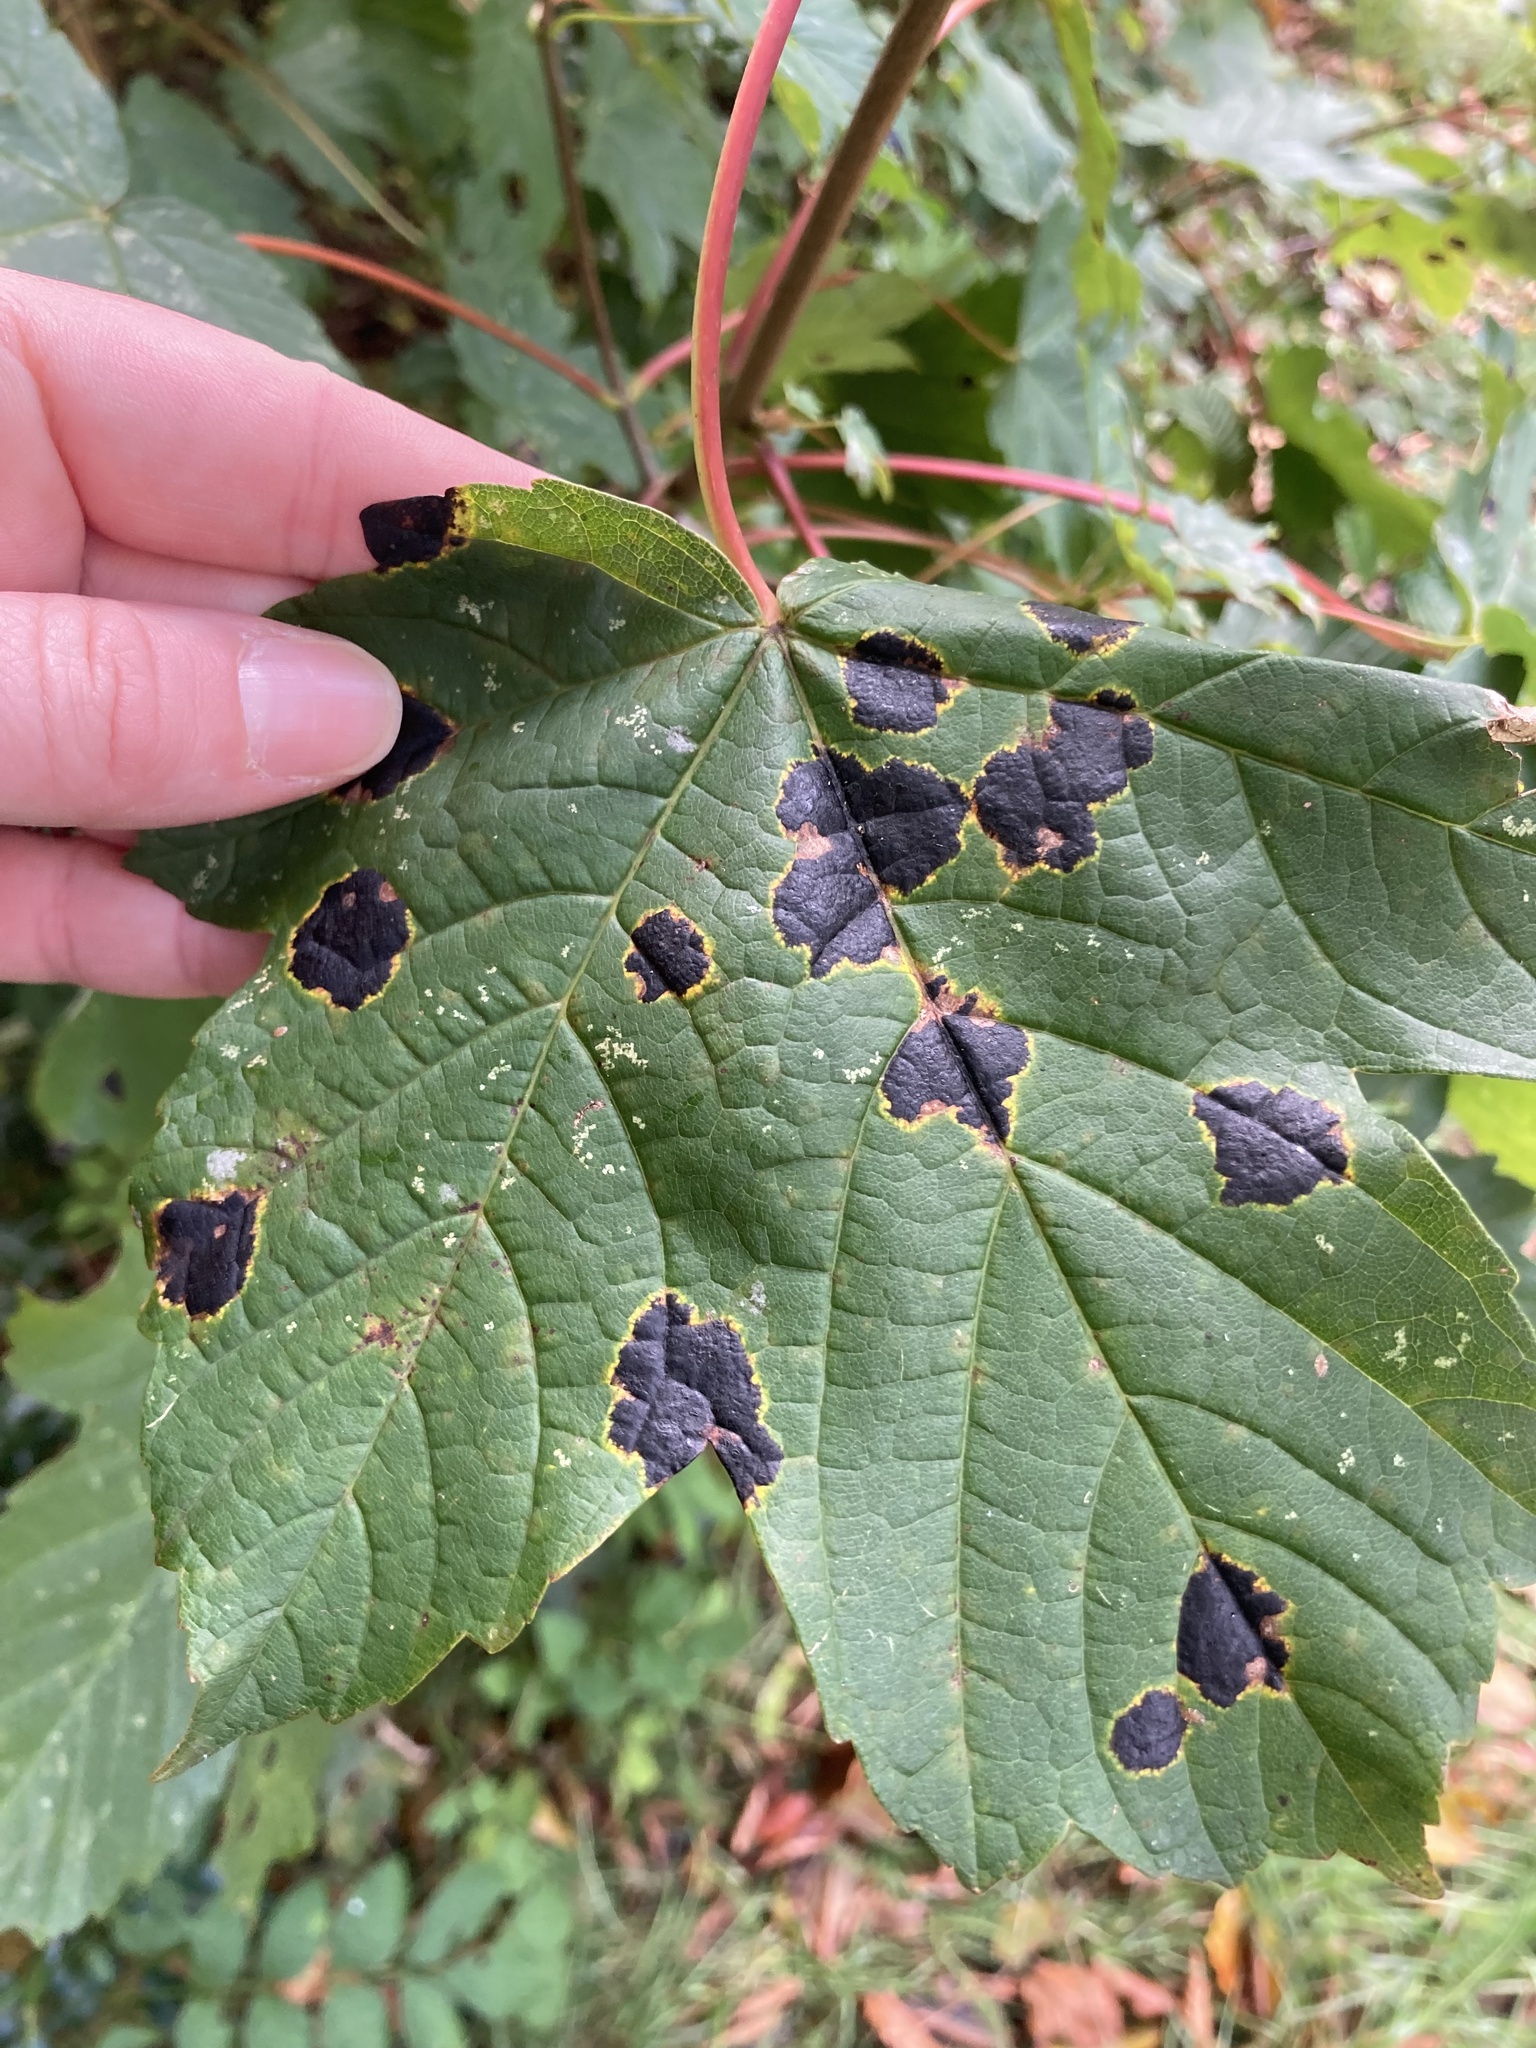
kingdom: Fungi
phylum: Ascomycota
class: Leotiomycetes
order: Rhytismatales
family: Rhytismataceae
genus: Rhytisma
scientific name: Rhytisma acerinum
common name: European tar spot
